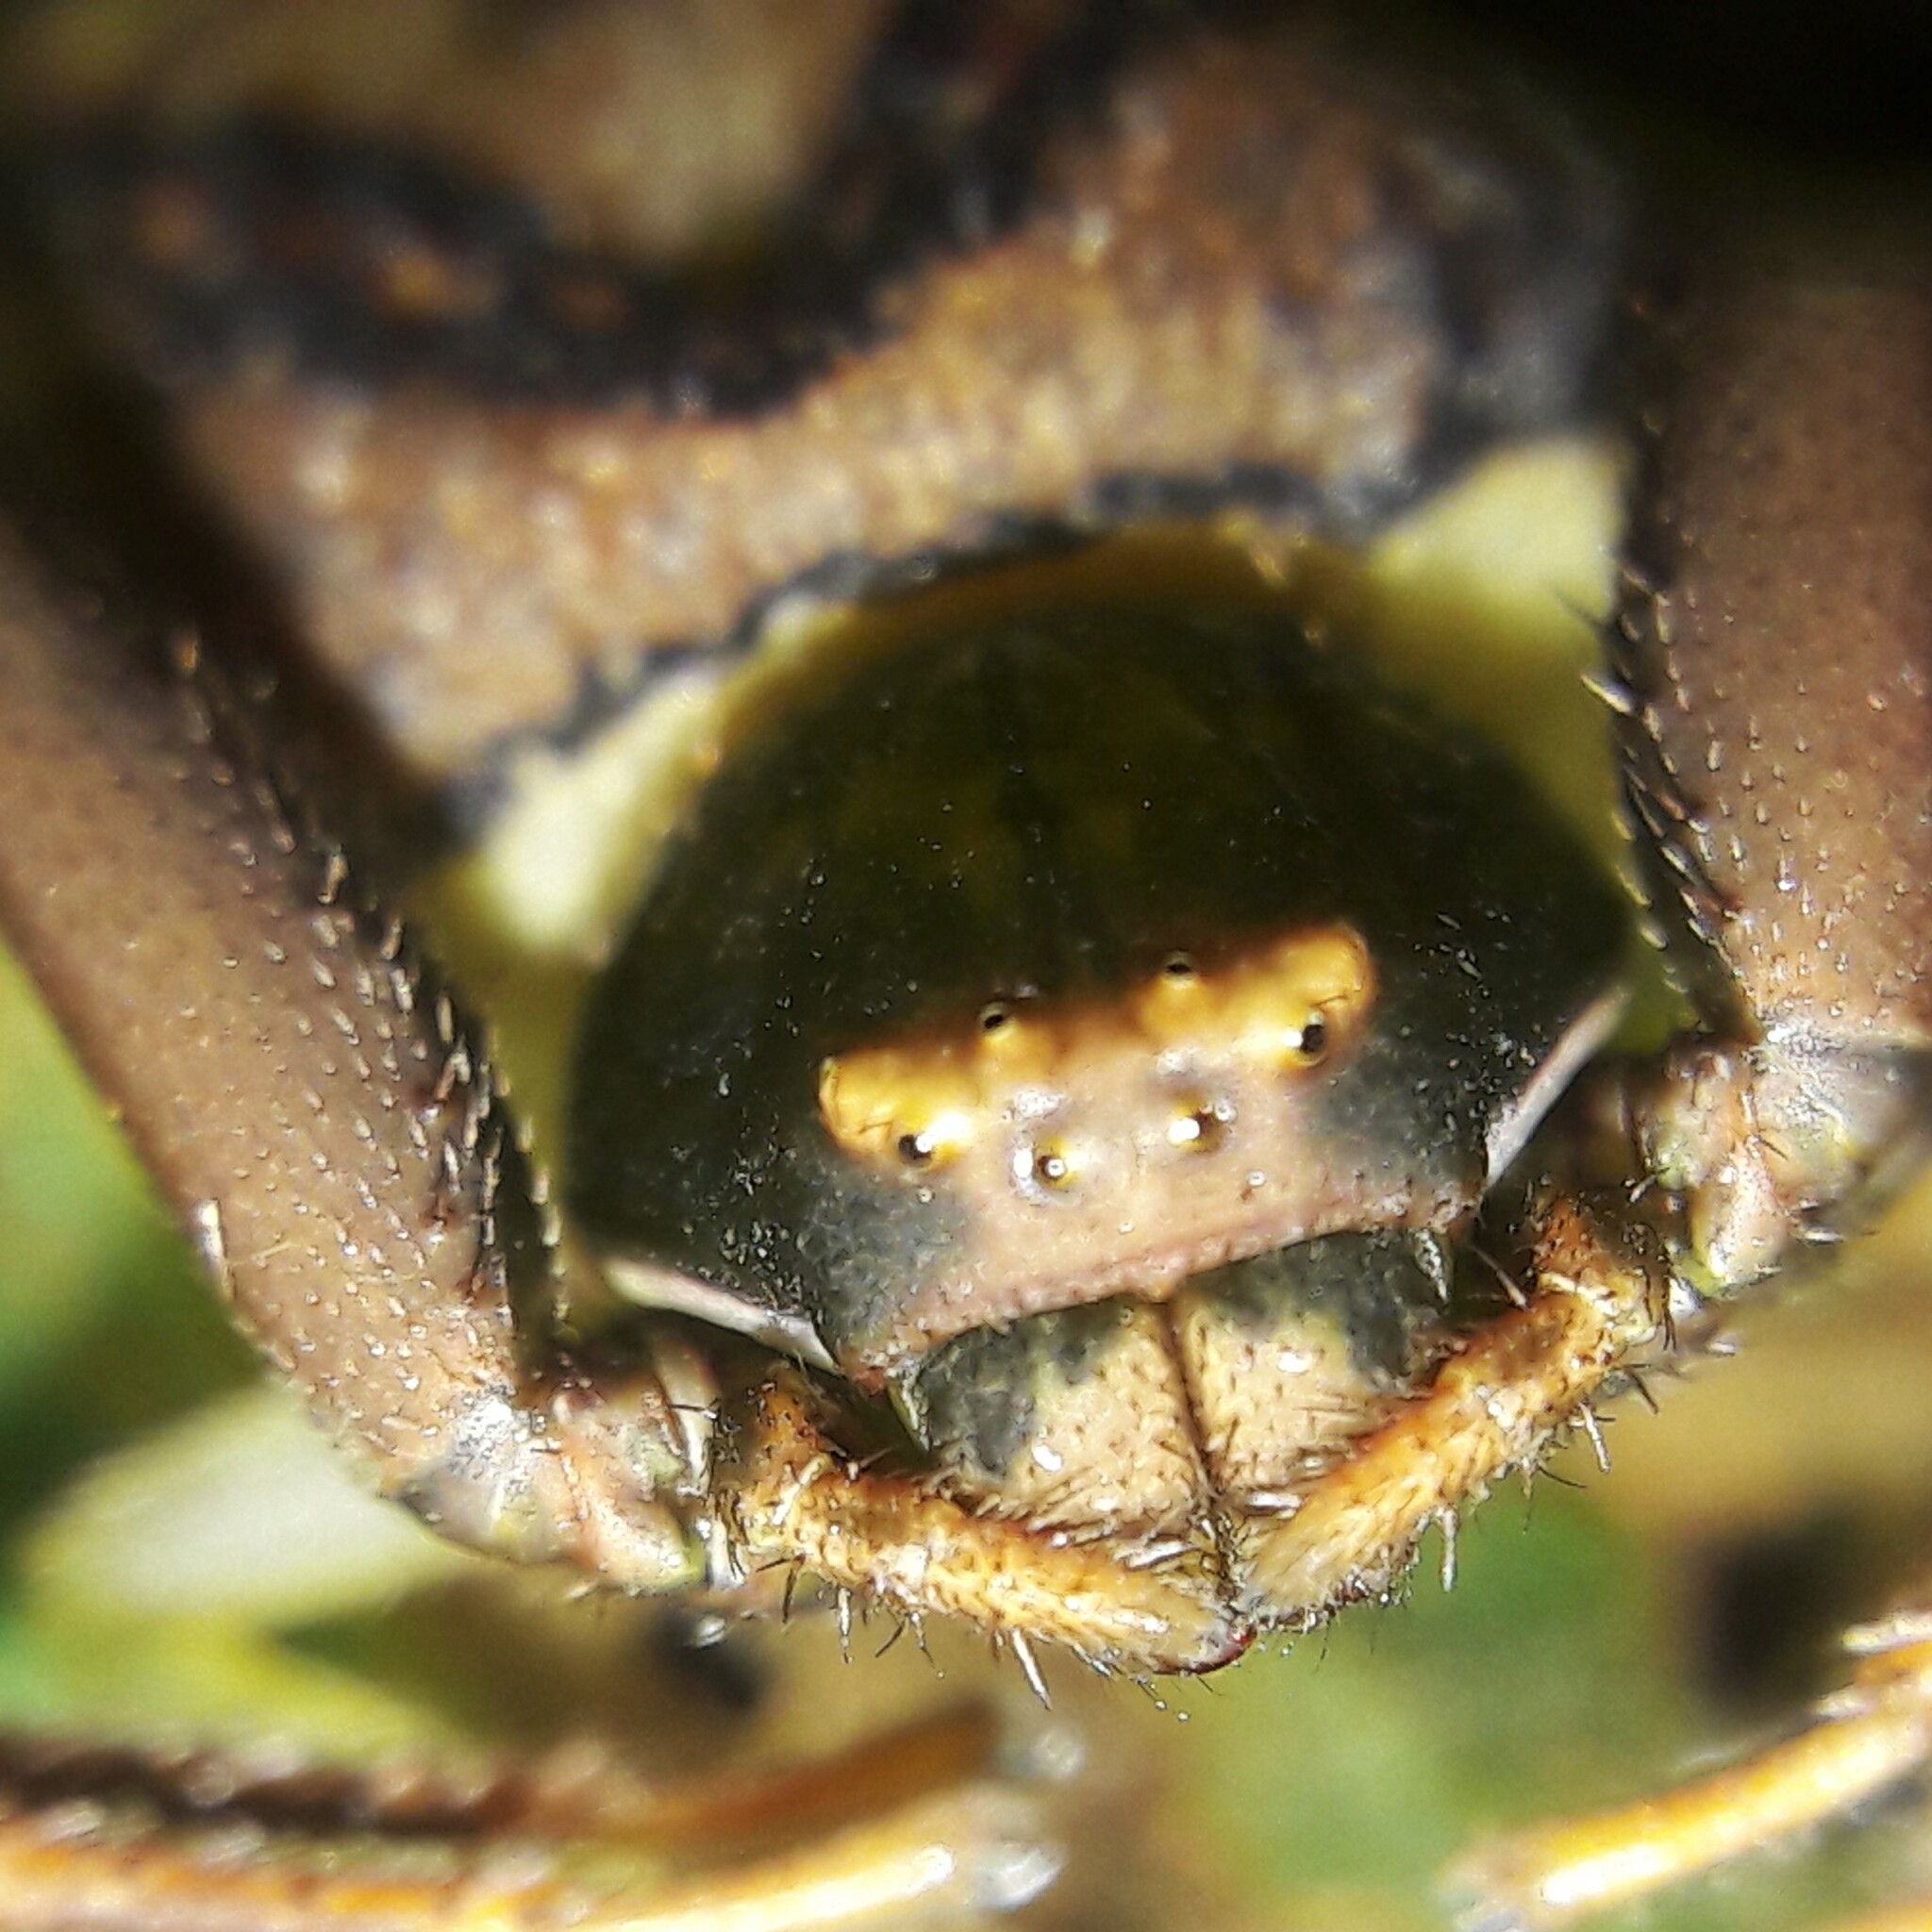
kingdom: Animalia
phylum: Arthropoda
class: Arachnida
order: Araneae
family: Thomisidae
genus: Runcinioides
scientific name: Runcinioides litteratus
